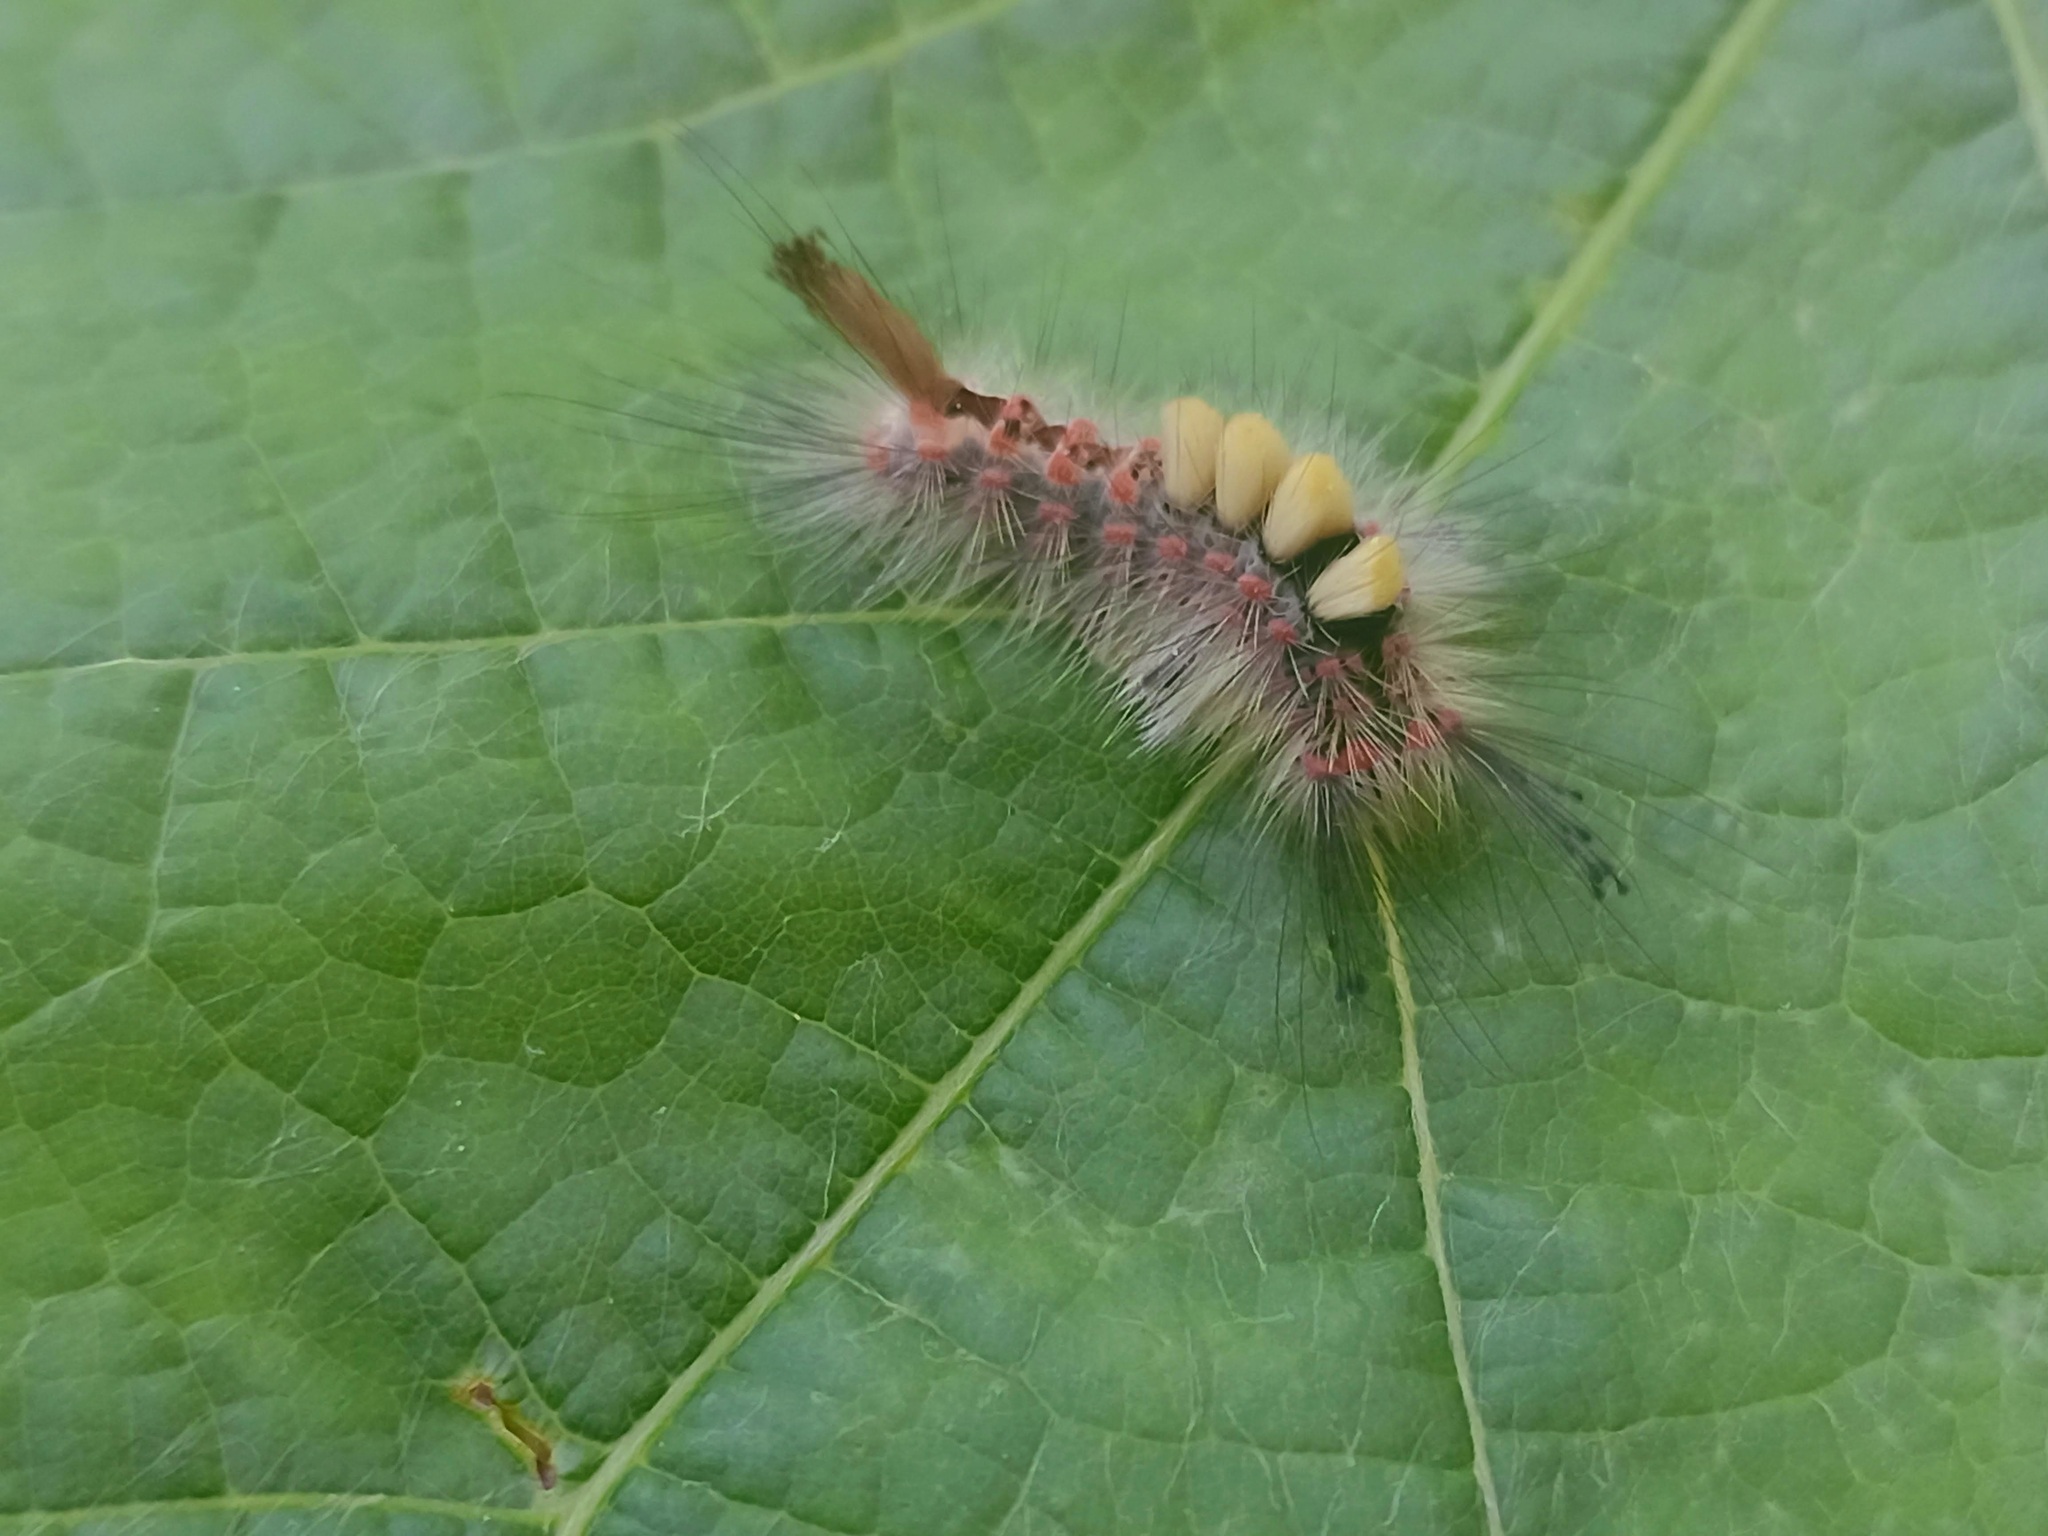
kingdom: Animalia
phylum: Arthropoda
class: Insecta
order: Lepidoptera
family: Erebidae
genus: Orgyia
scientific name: Orgyia antiqua
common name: Vapourer
